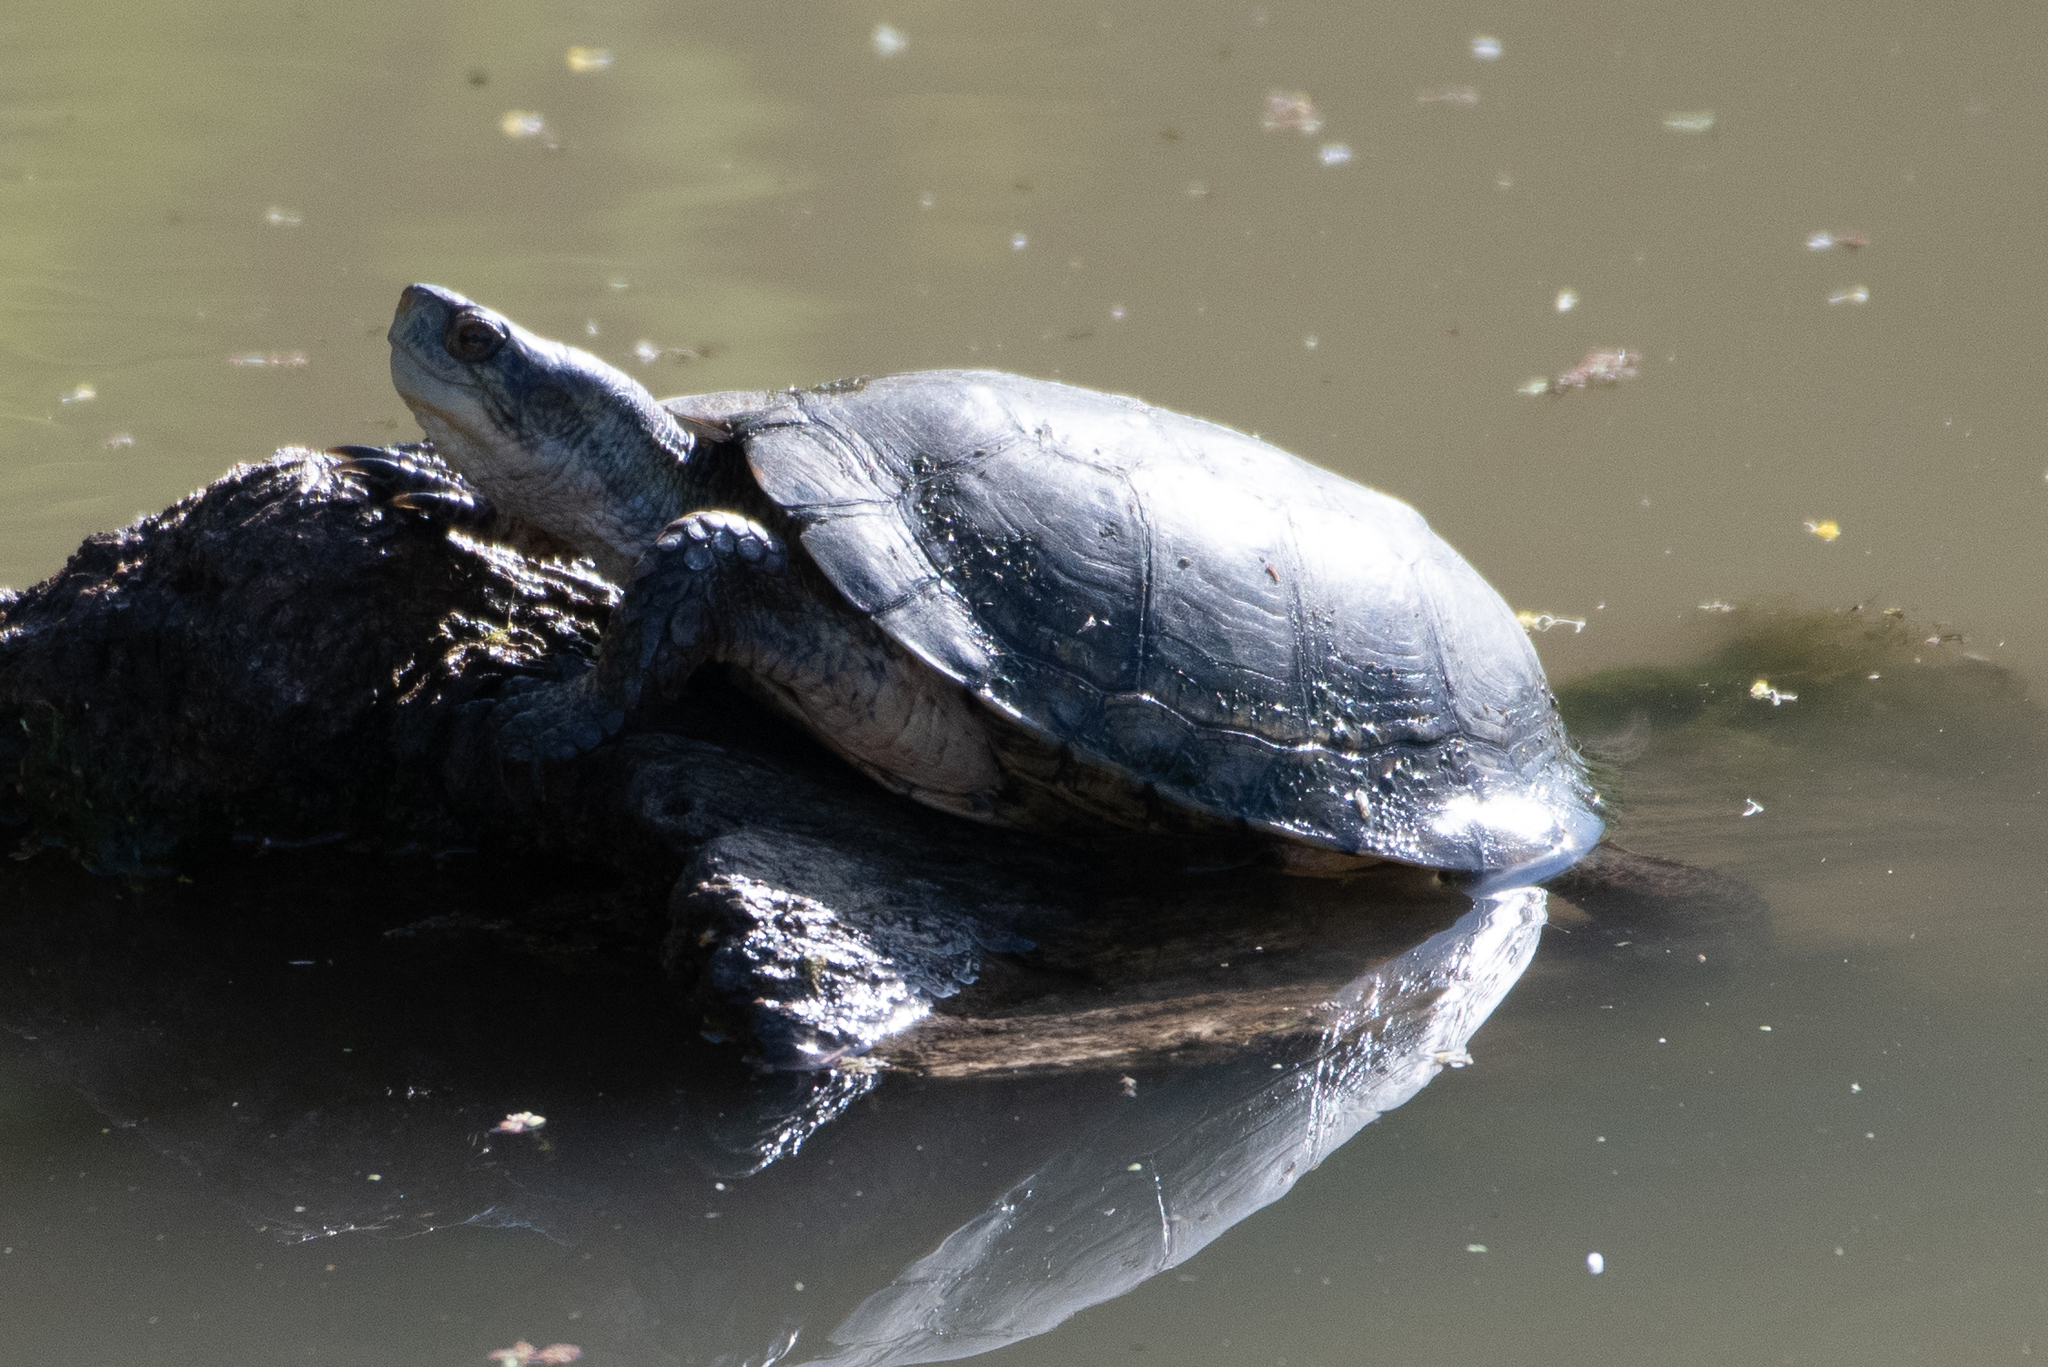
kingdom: Animalia
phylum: Chordata
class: Testudines
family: Emydidae
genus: Actinemys
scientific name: Actinemys marmorata
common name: Western pond turtle
